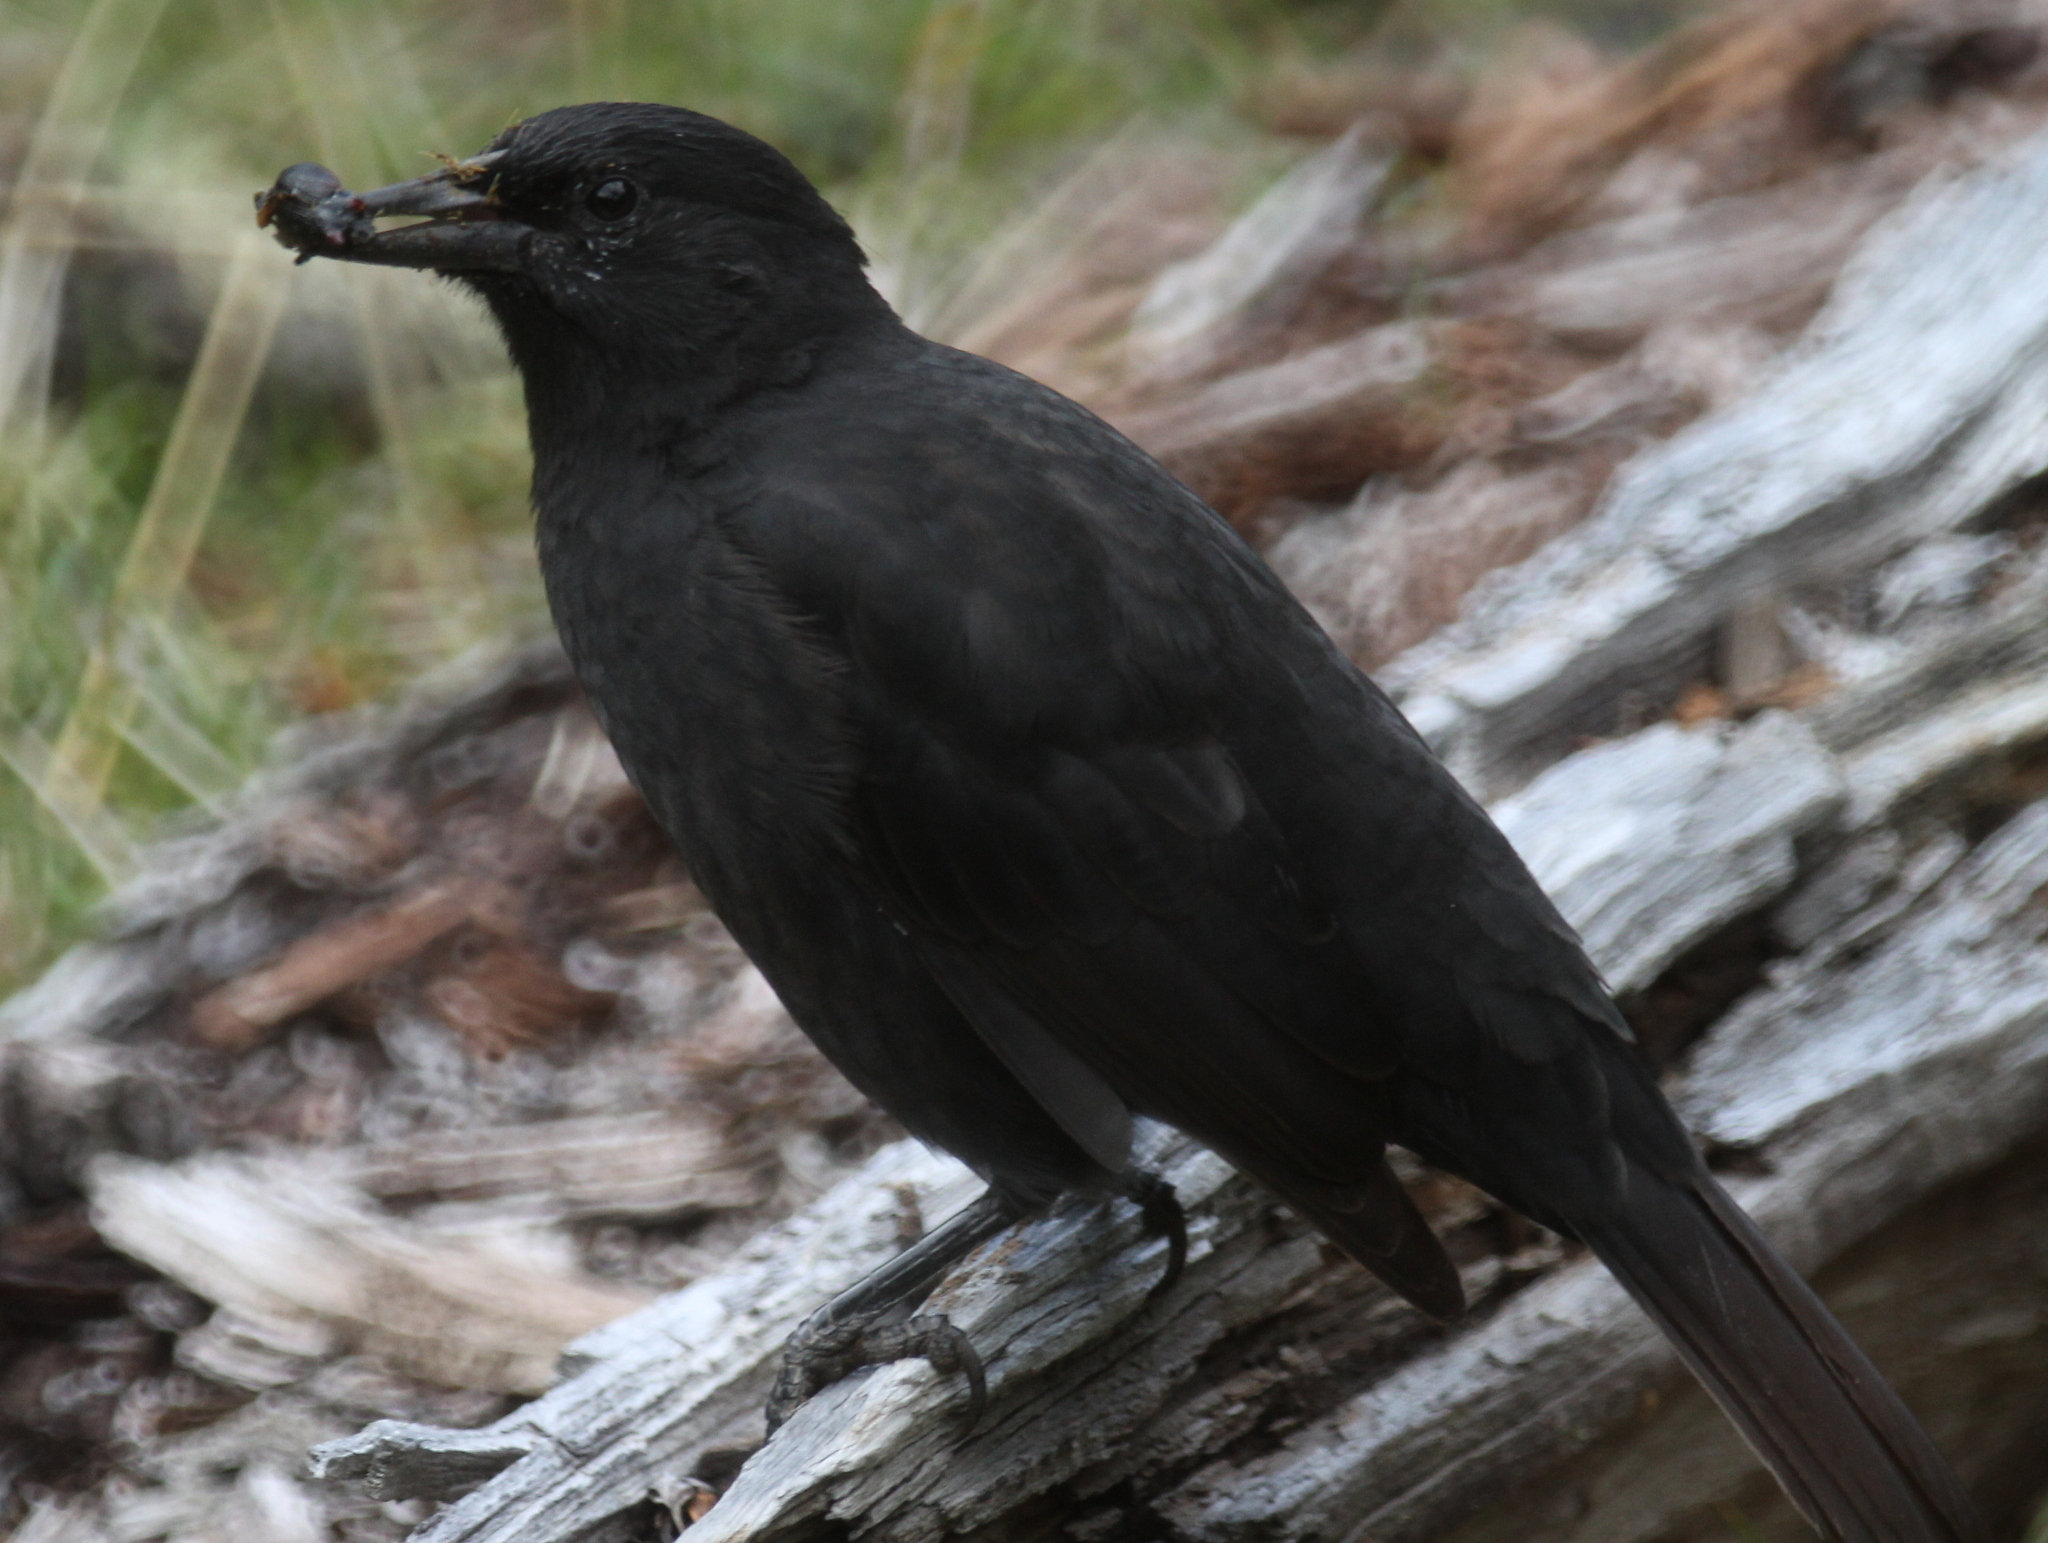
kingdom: Animalia
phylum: Chordata
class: Aves
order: Passeriformes
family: Icteridae
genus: Curaeus
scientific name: Curaeus curaeus
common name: Austral blackbird
